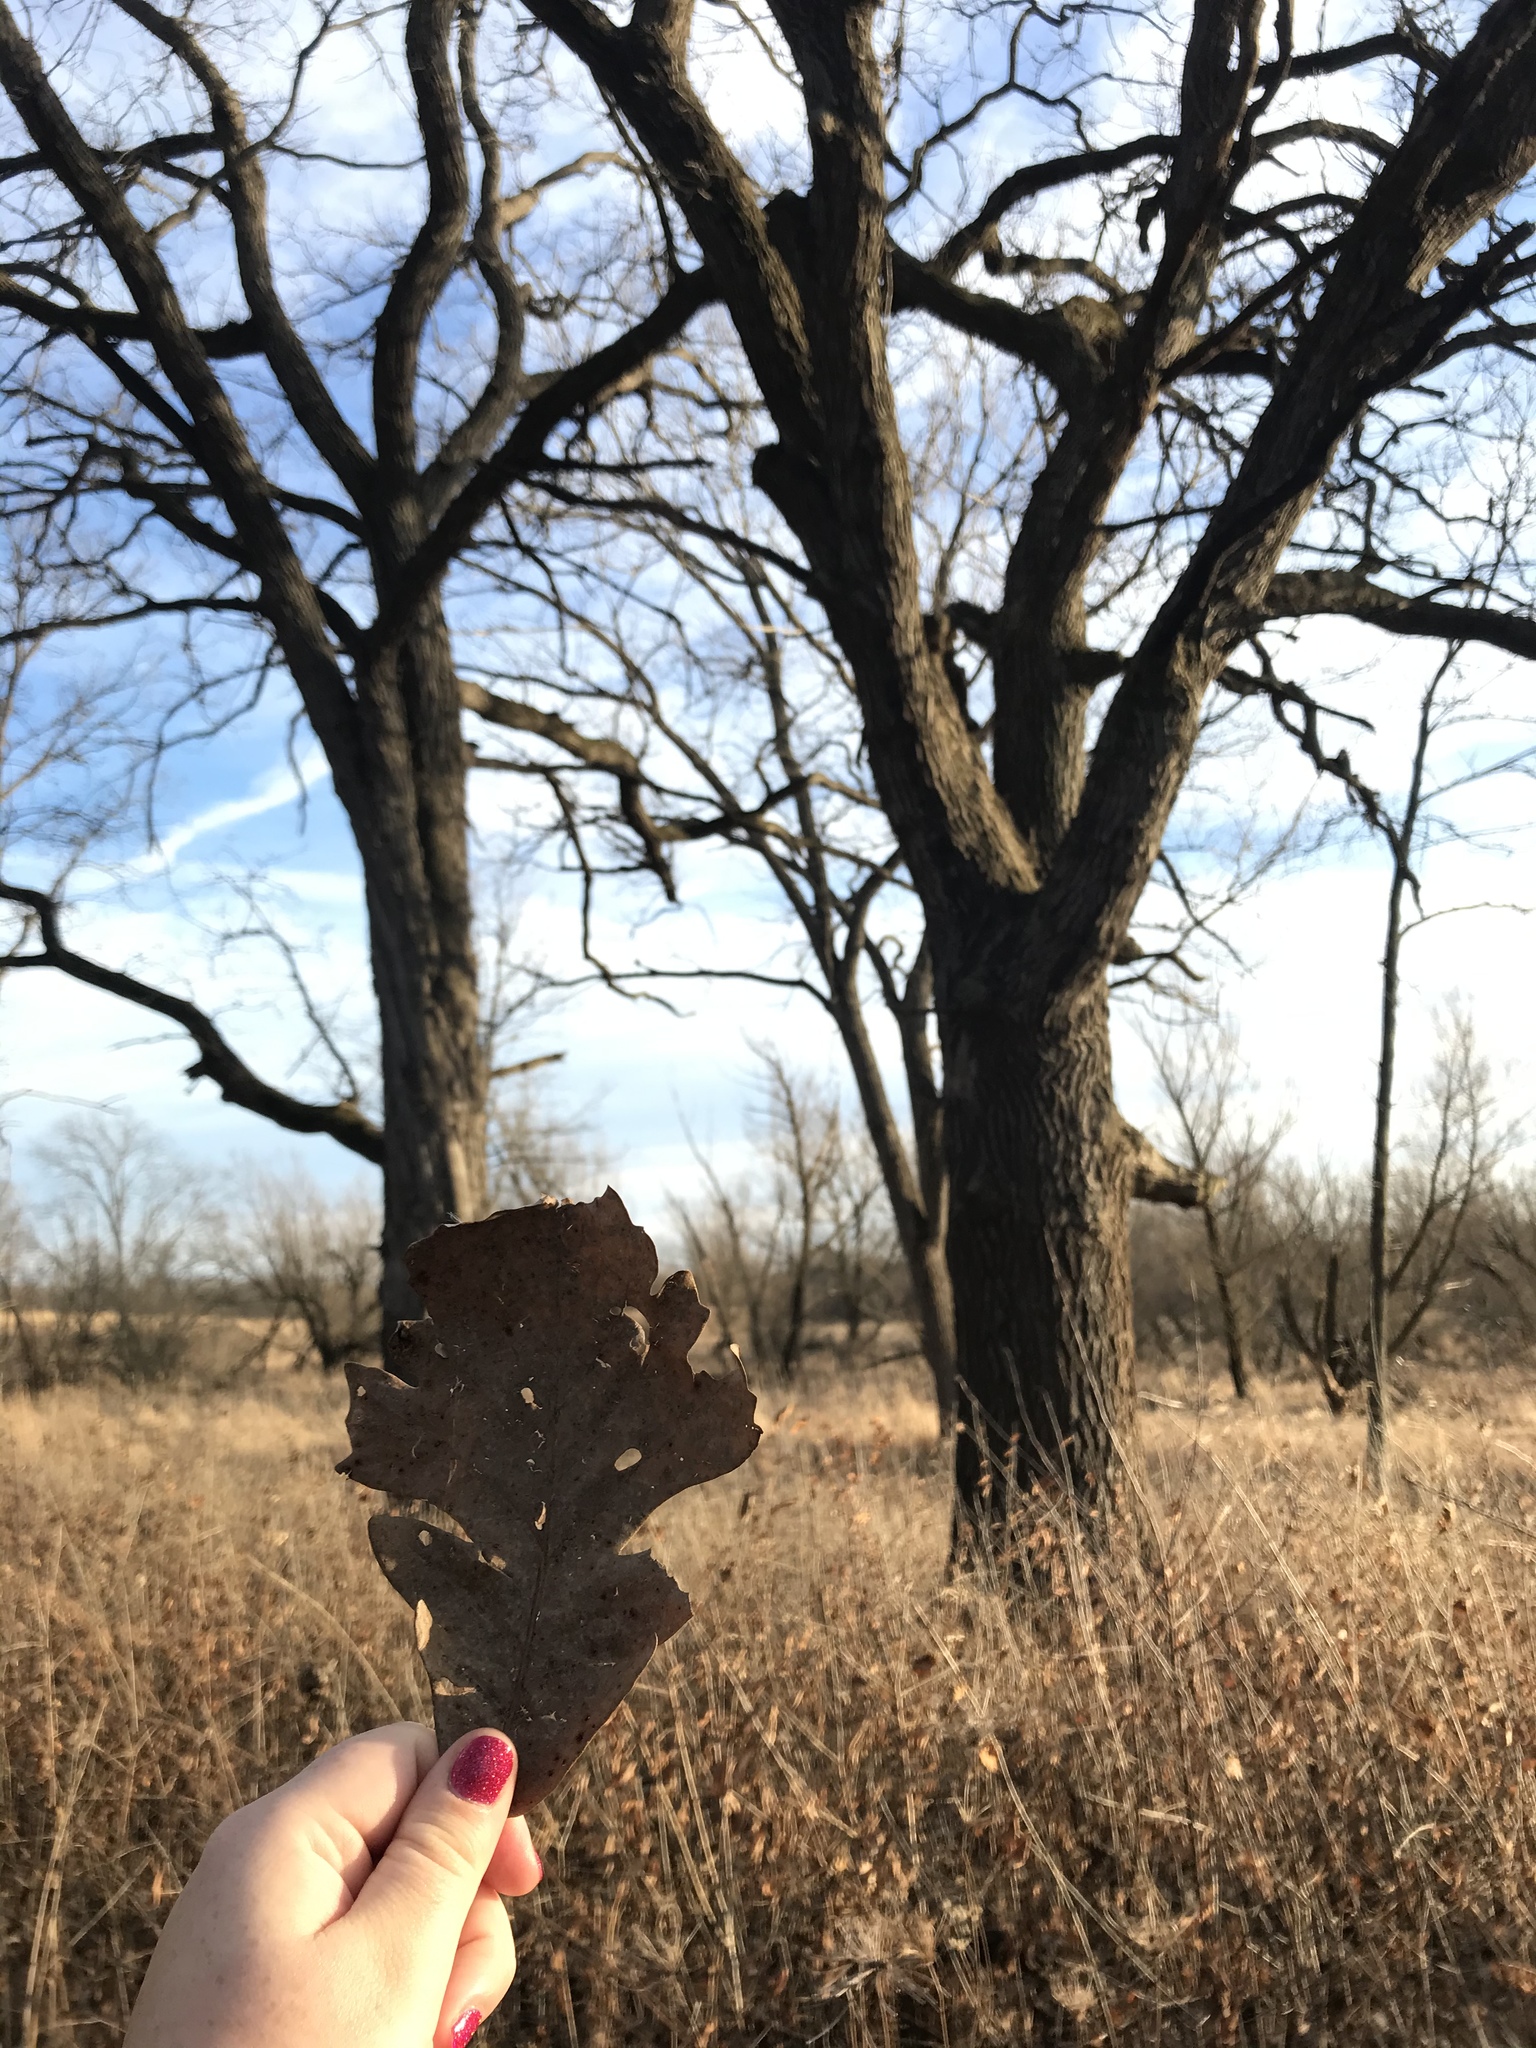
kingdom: Plantae
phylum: Tracheophyta
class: Magnoliopsida
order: Fagales
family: Fagaceae
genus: Quercus
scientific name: Quercus macrocarpa
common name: Bur oak
